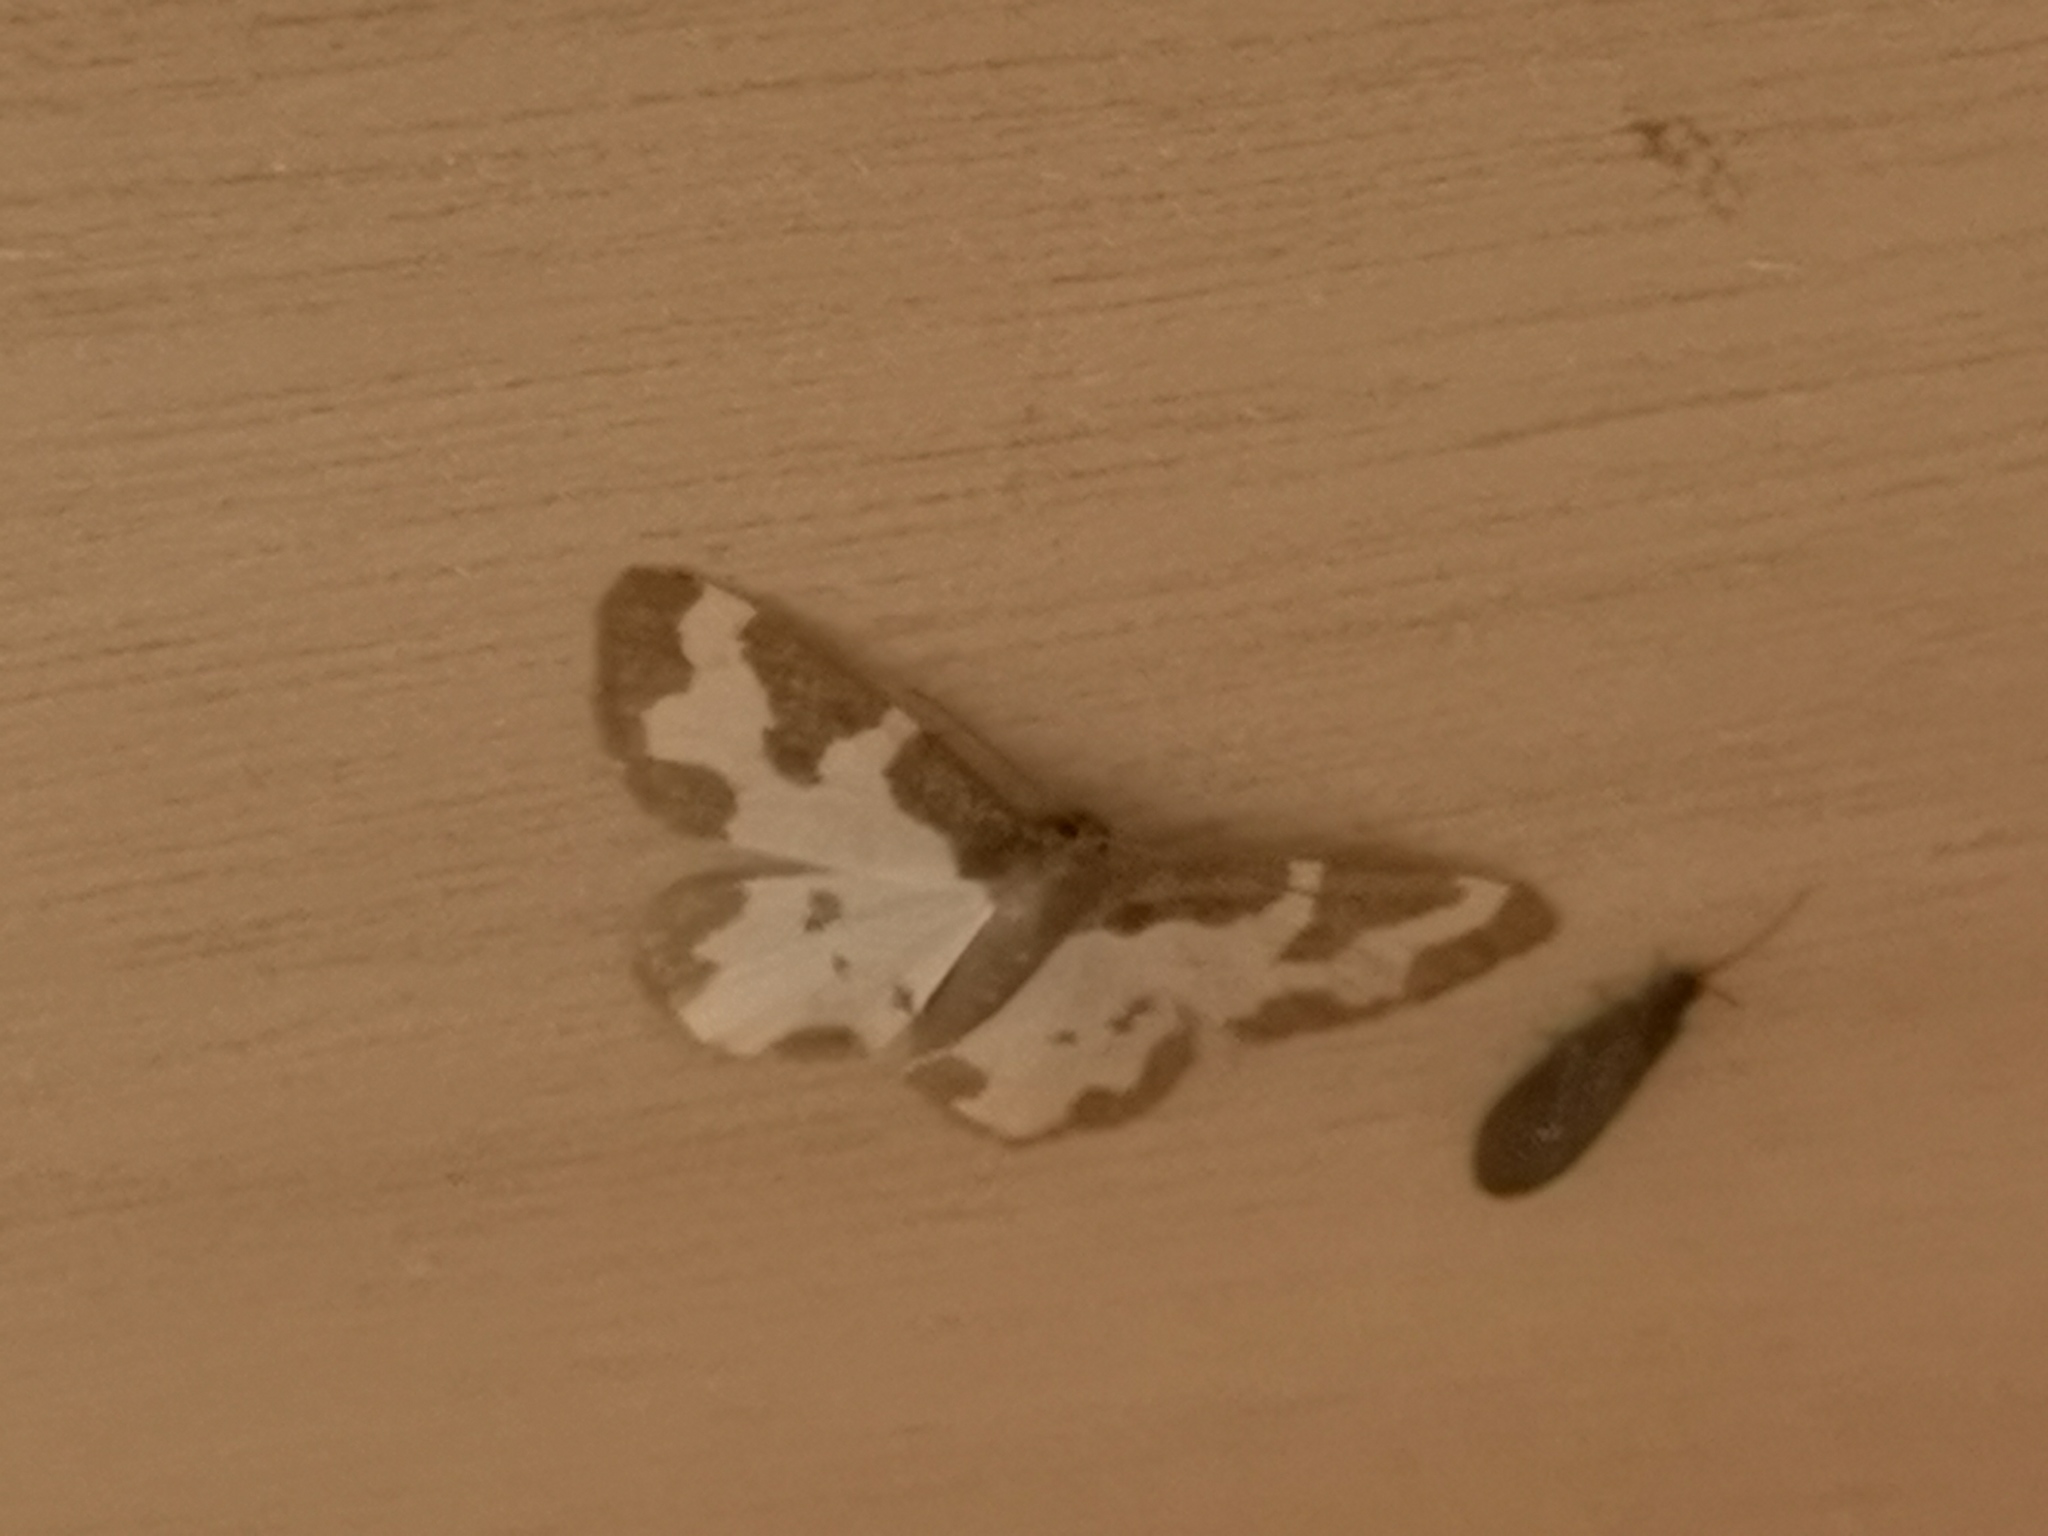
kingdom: Animalia
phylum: Arthropoda
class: Insecta
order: Lepidoptera
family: Geometridae
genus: Lomaspilis
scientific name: Lomaspilis marginata
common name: Clouded border
